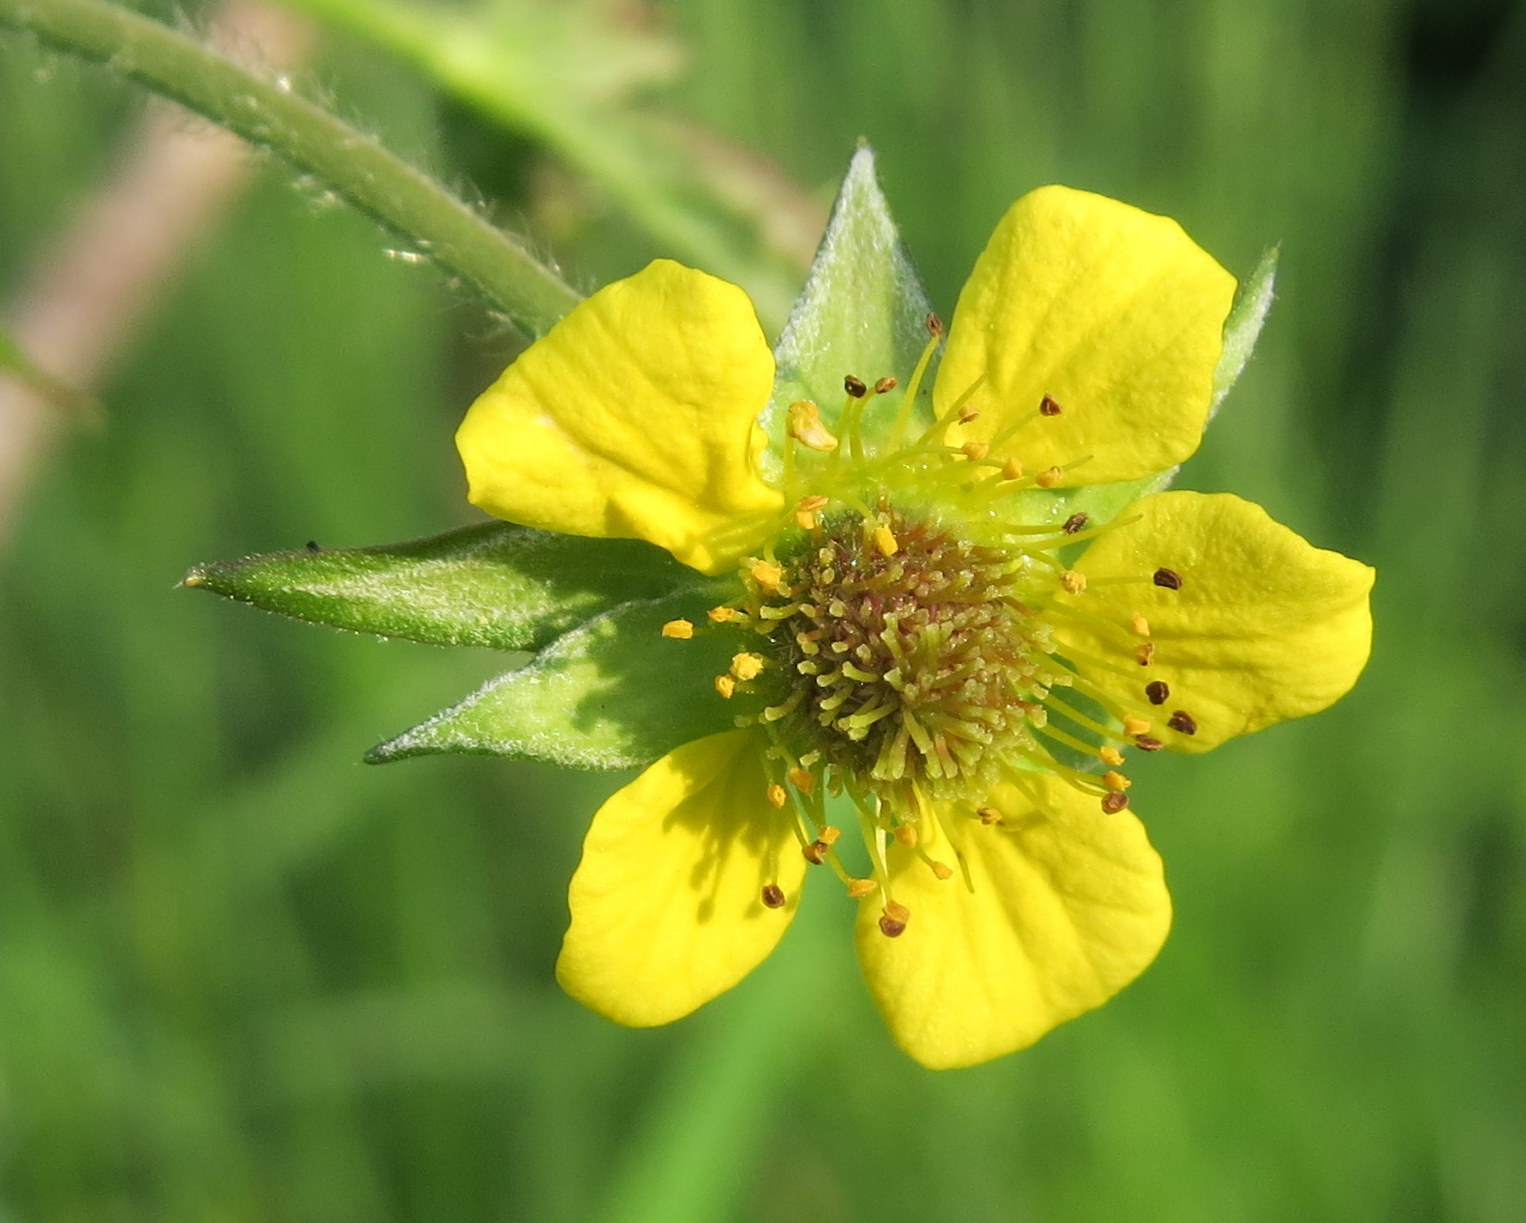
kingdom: Plantae
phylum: Tracheophyta
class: Magnoliopsida
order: Rosales
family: Rosaceae
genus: Geum
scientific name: Geum urbanum
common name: Wood avens
